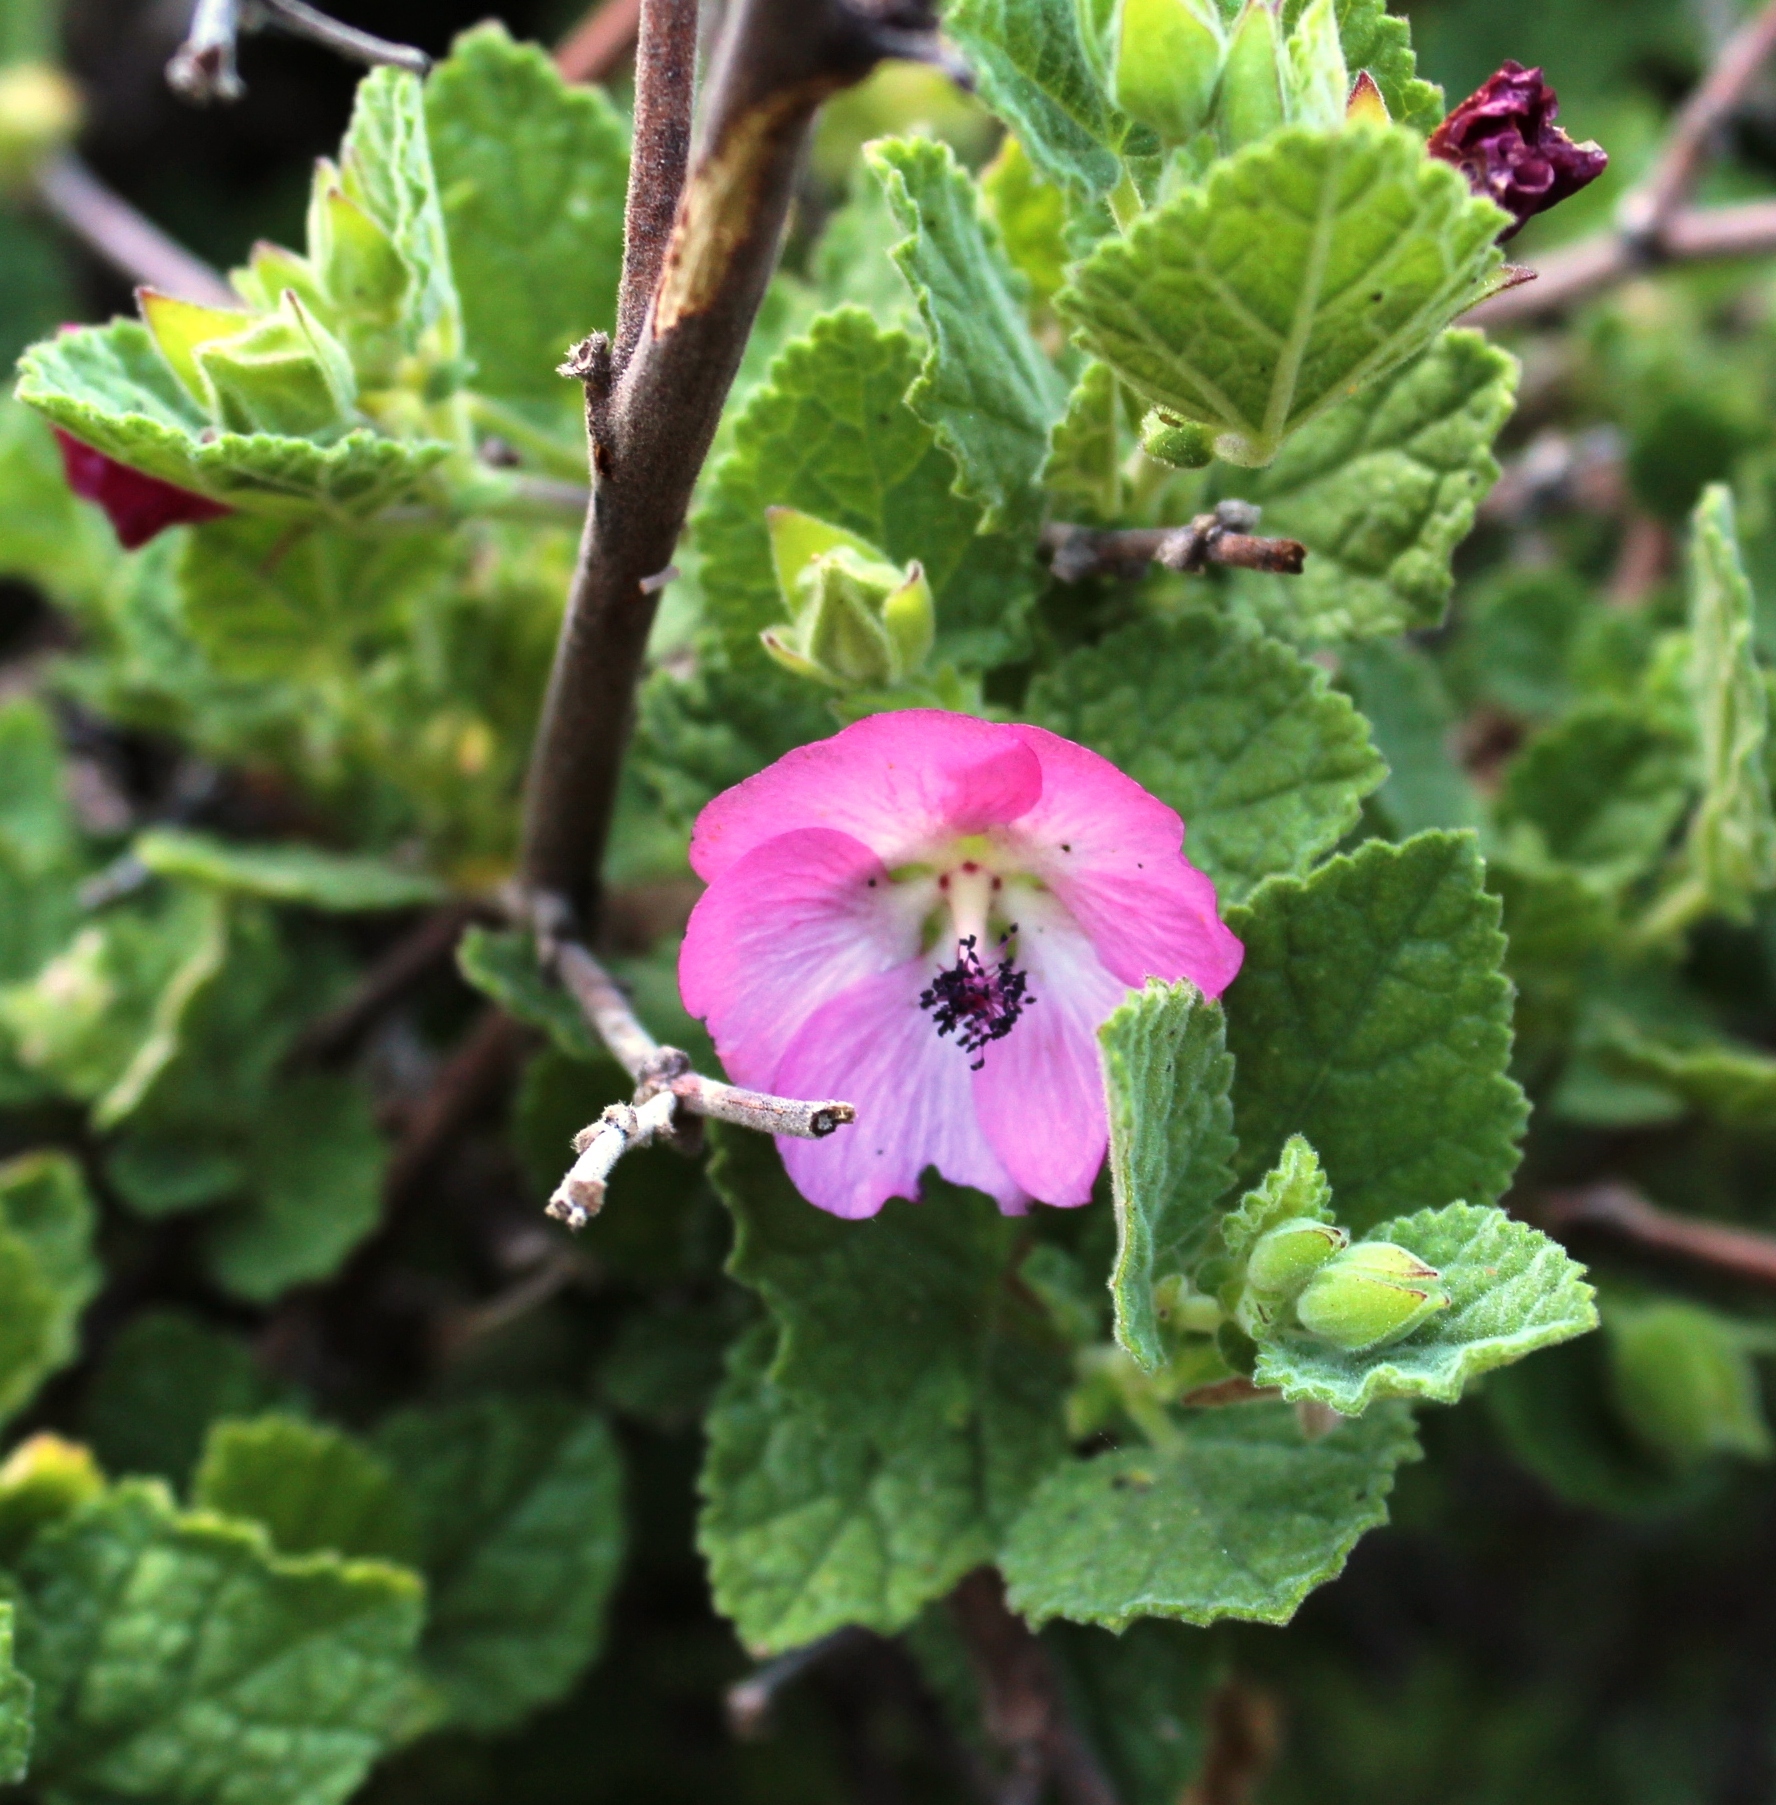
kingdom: Plantae
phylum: Tracheophyta
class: Magnoliopsida
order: Malvales
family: Malvaceae
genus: Anisodontea
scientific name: Anisodontea scabrosa
